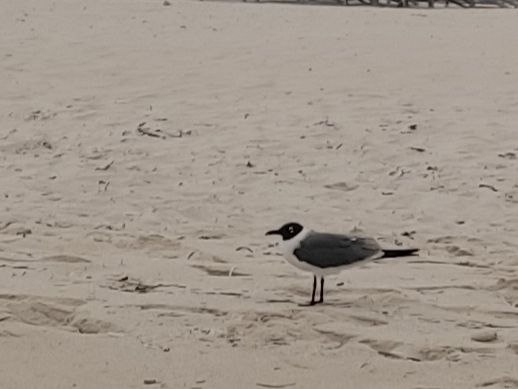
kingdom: Animalia
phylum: Chordata
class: Aves
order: Charadriiformes
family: Laridae
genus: Leucophaeus
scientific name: Leucophaeus atricilla
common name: Laughing gull
